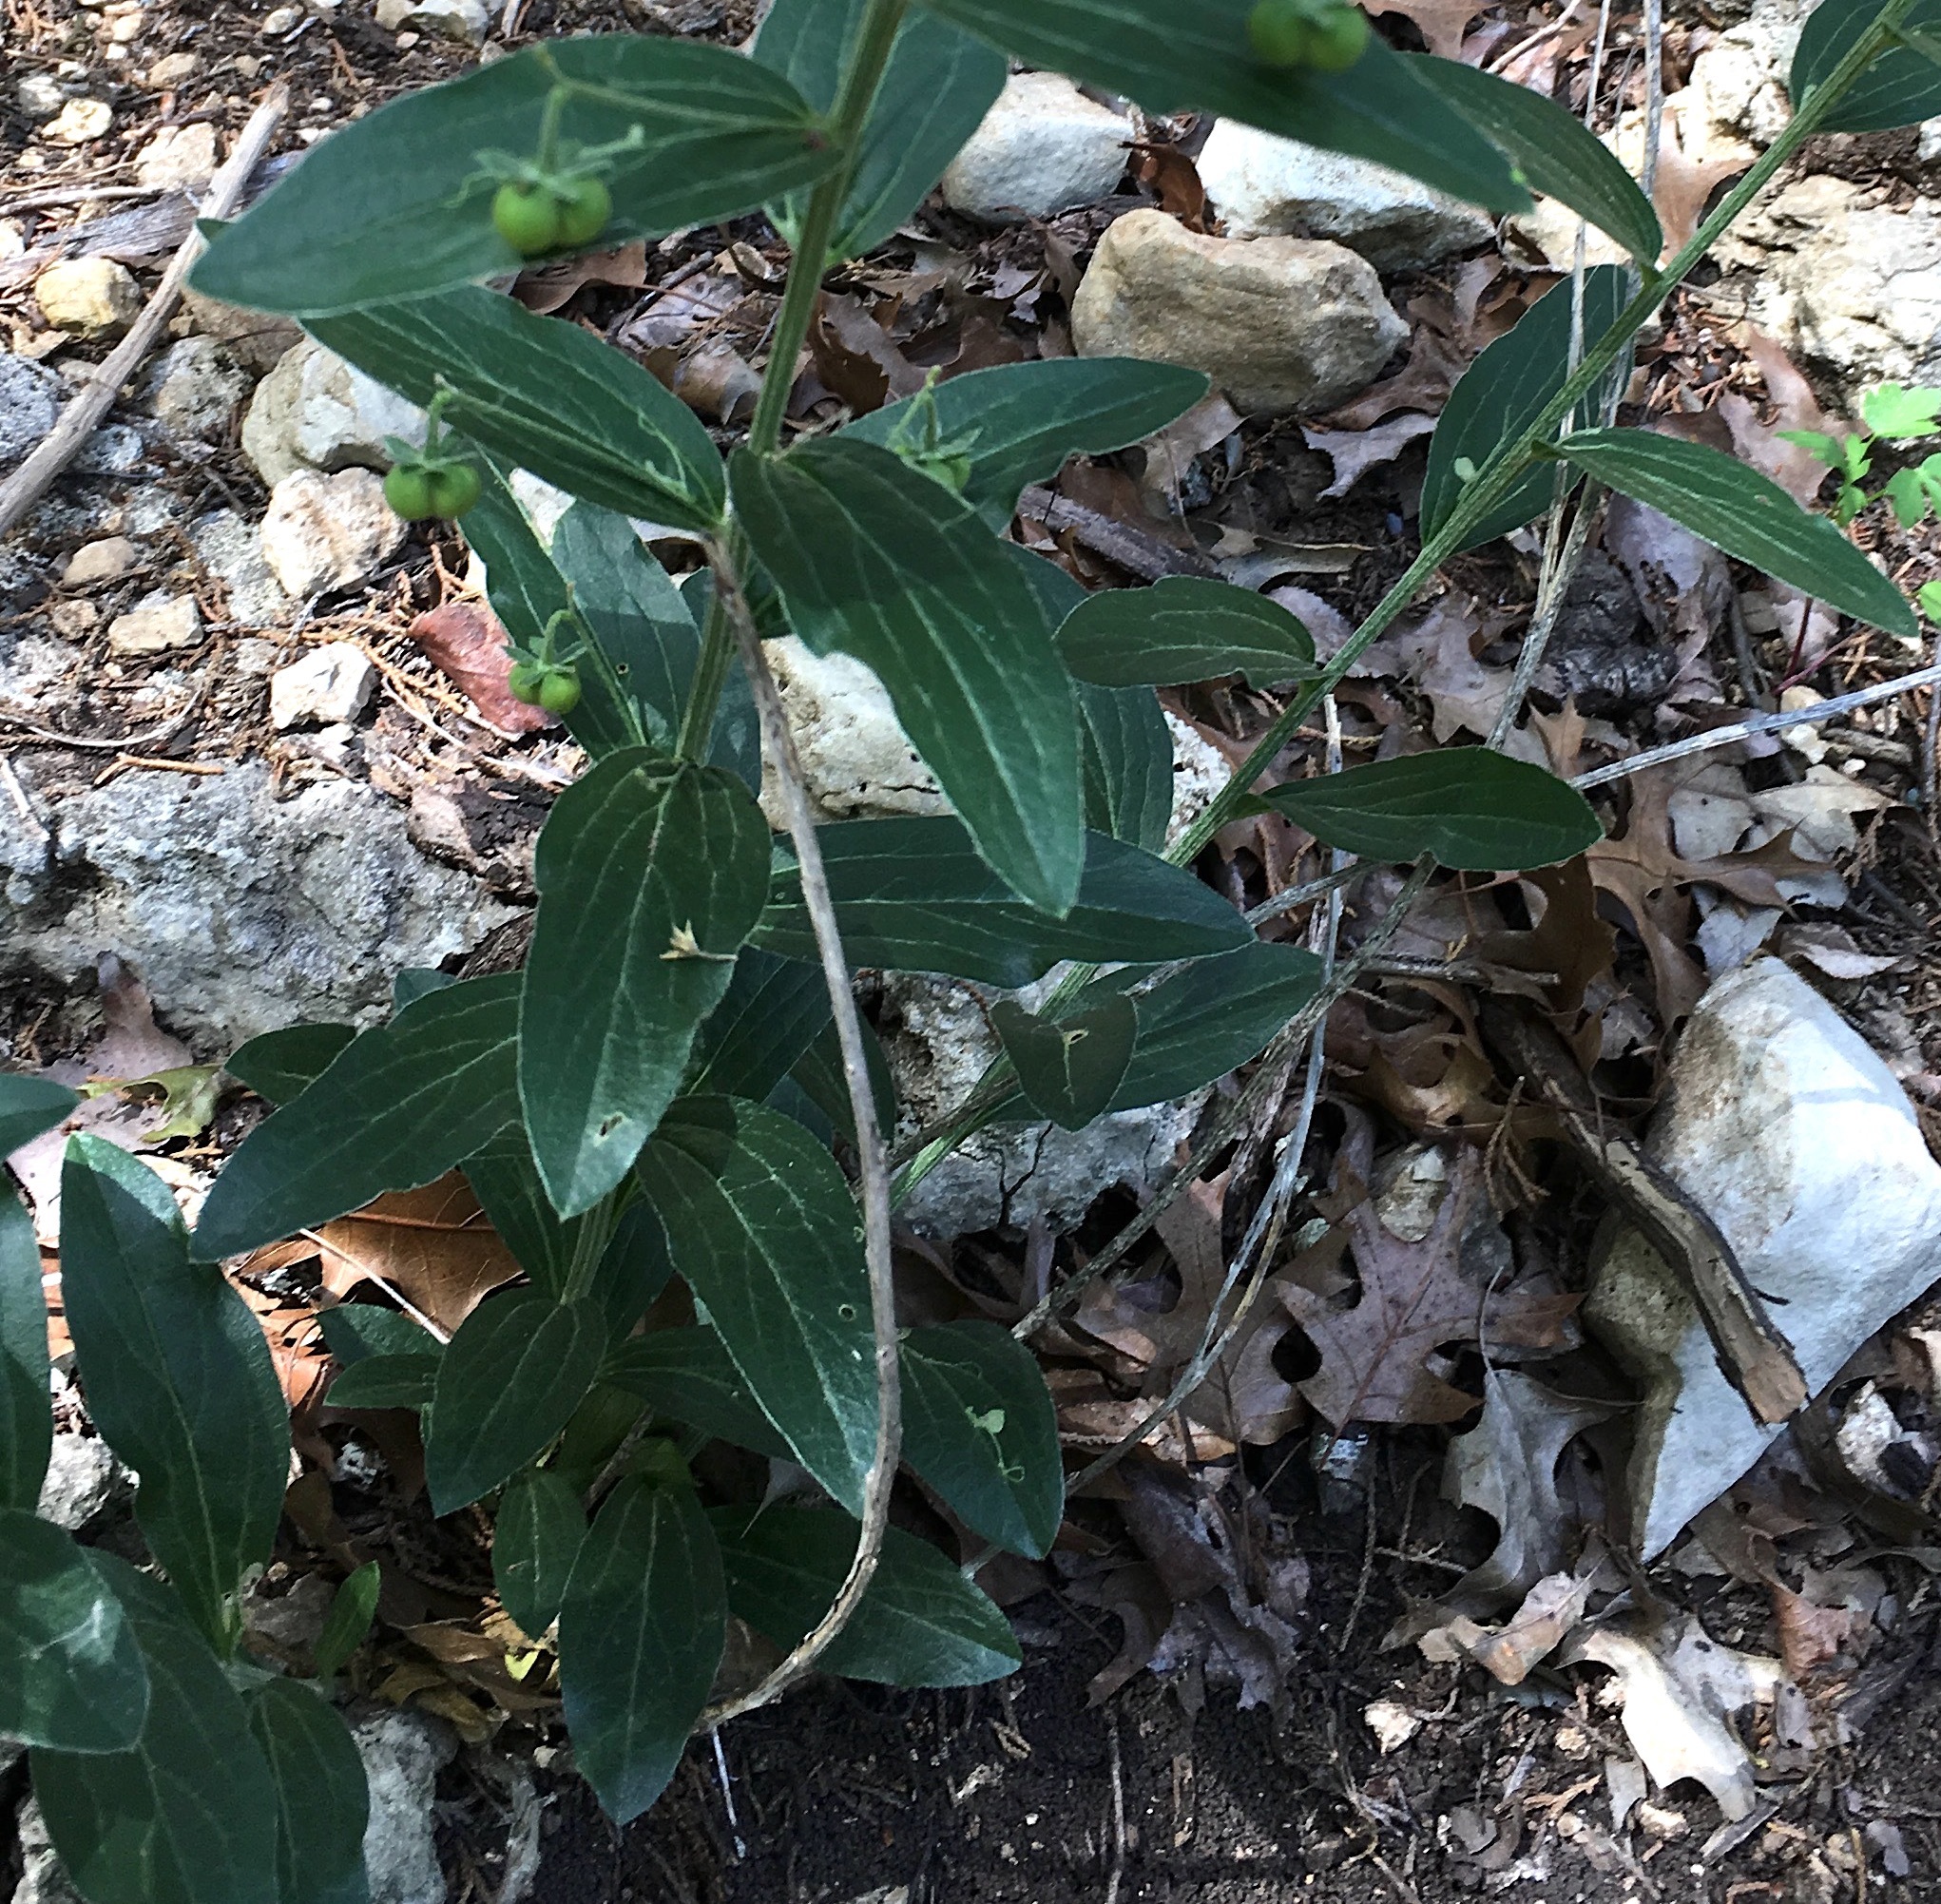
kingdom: Plantae
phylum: Tracheophyta
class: Magnoliopsida
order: Malpighiales
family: Euphorbiaceae
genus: Ditaxis
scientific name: Ditaxis mercurialina
